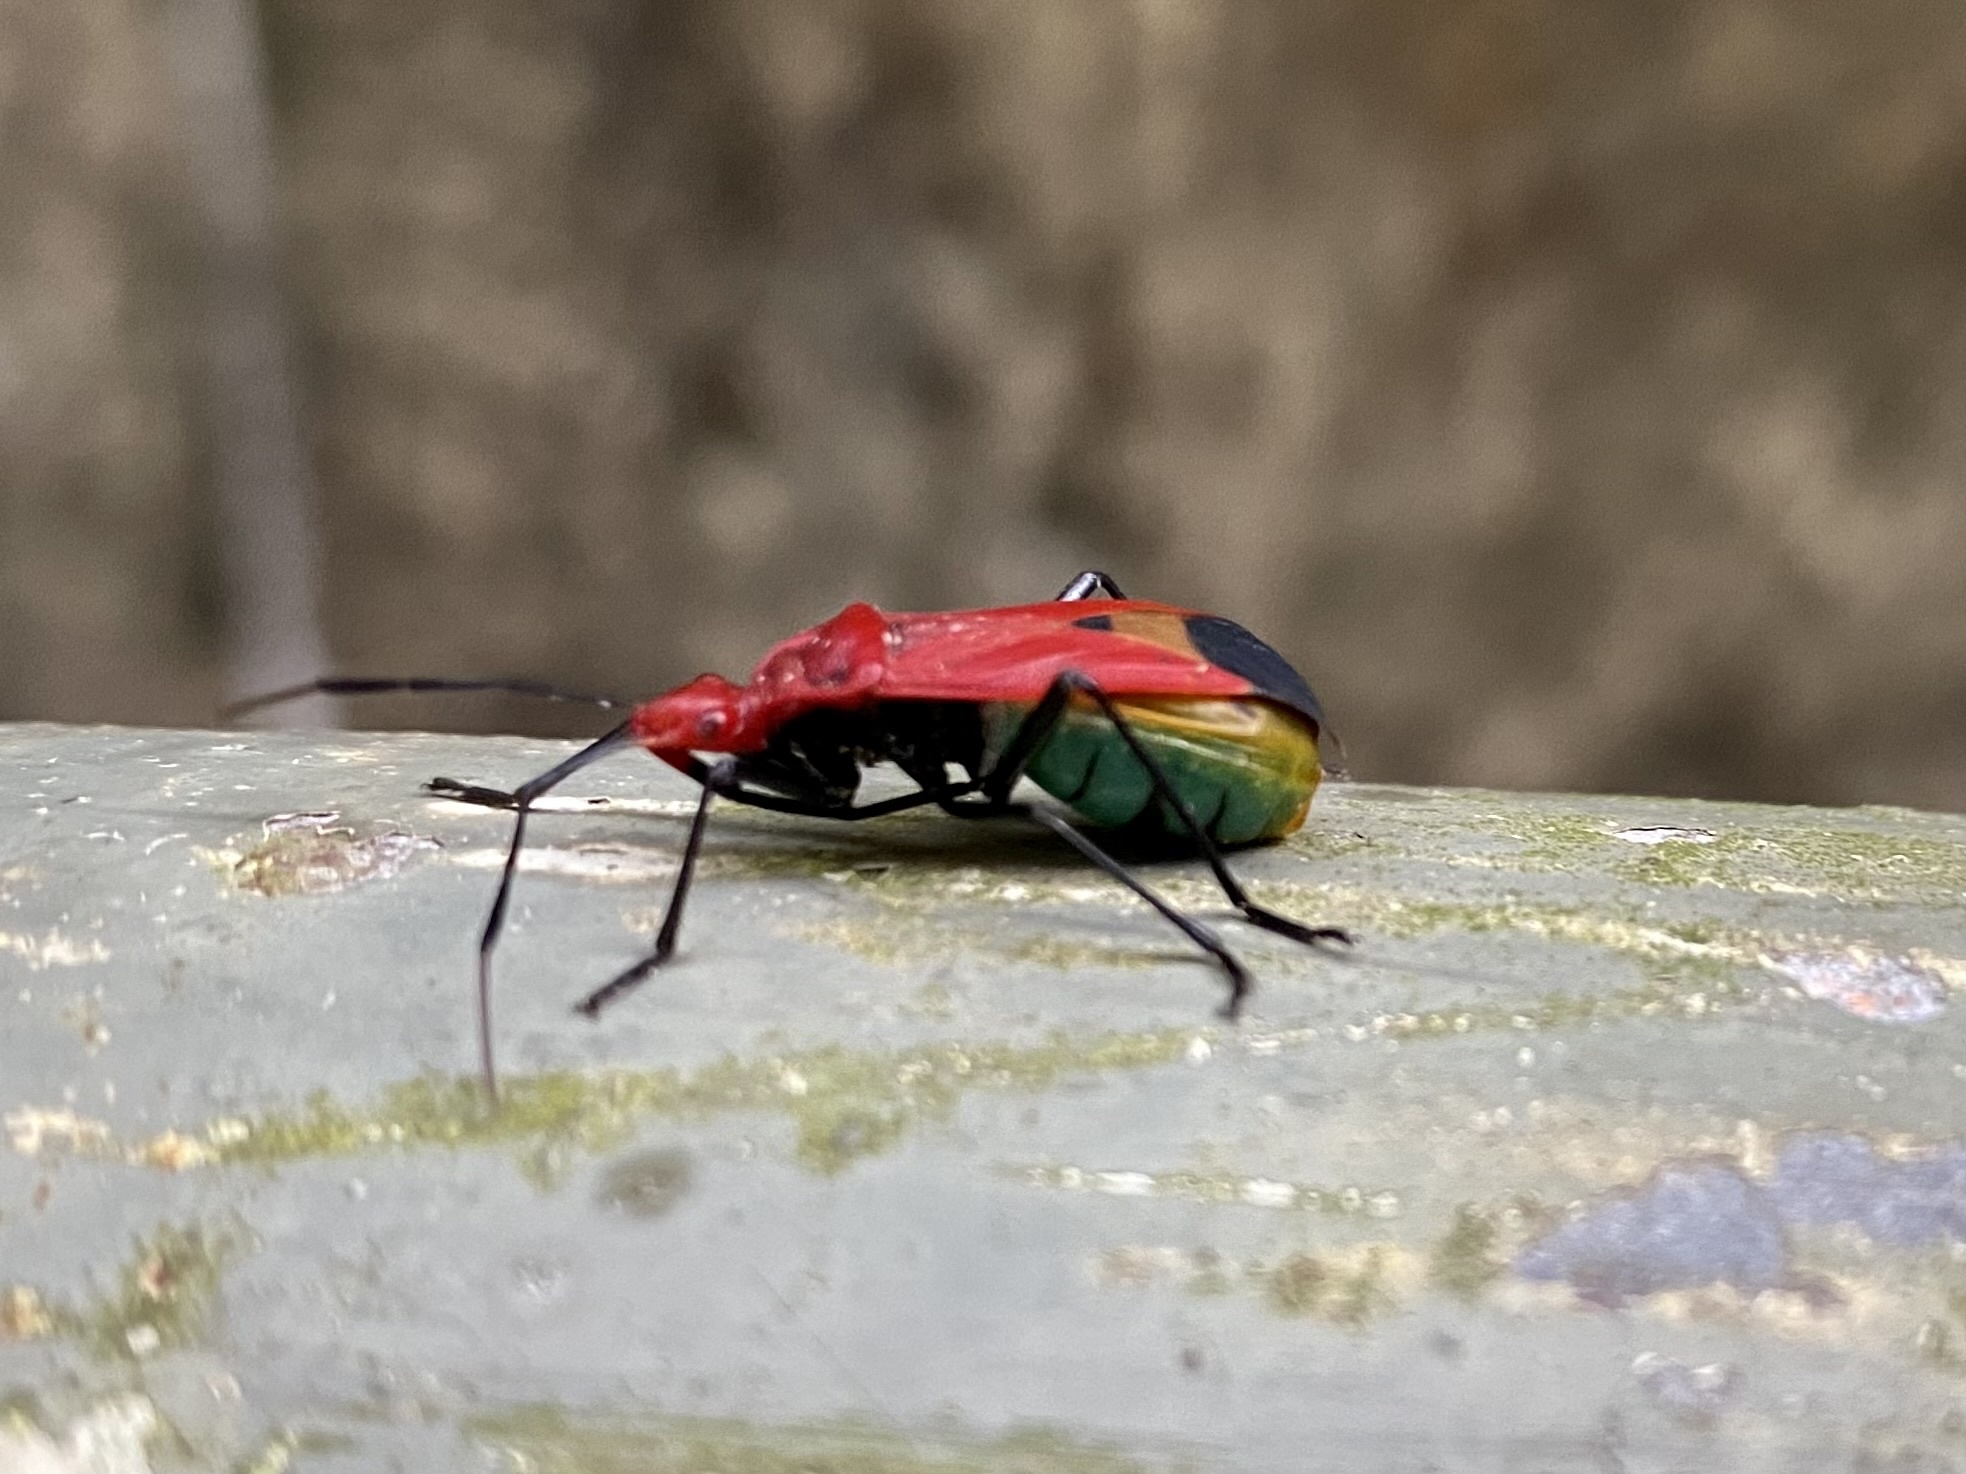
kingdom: Animalia
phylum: Arthropoda
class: Insecta
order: Hemiptera
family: Pyrrhocoridae
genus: Dindymus
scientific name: Dindymus
